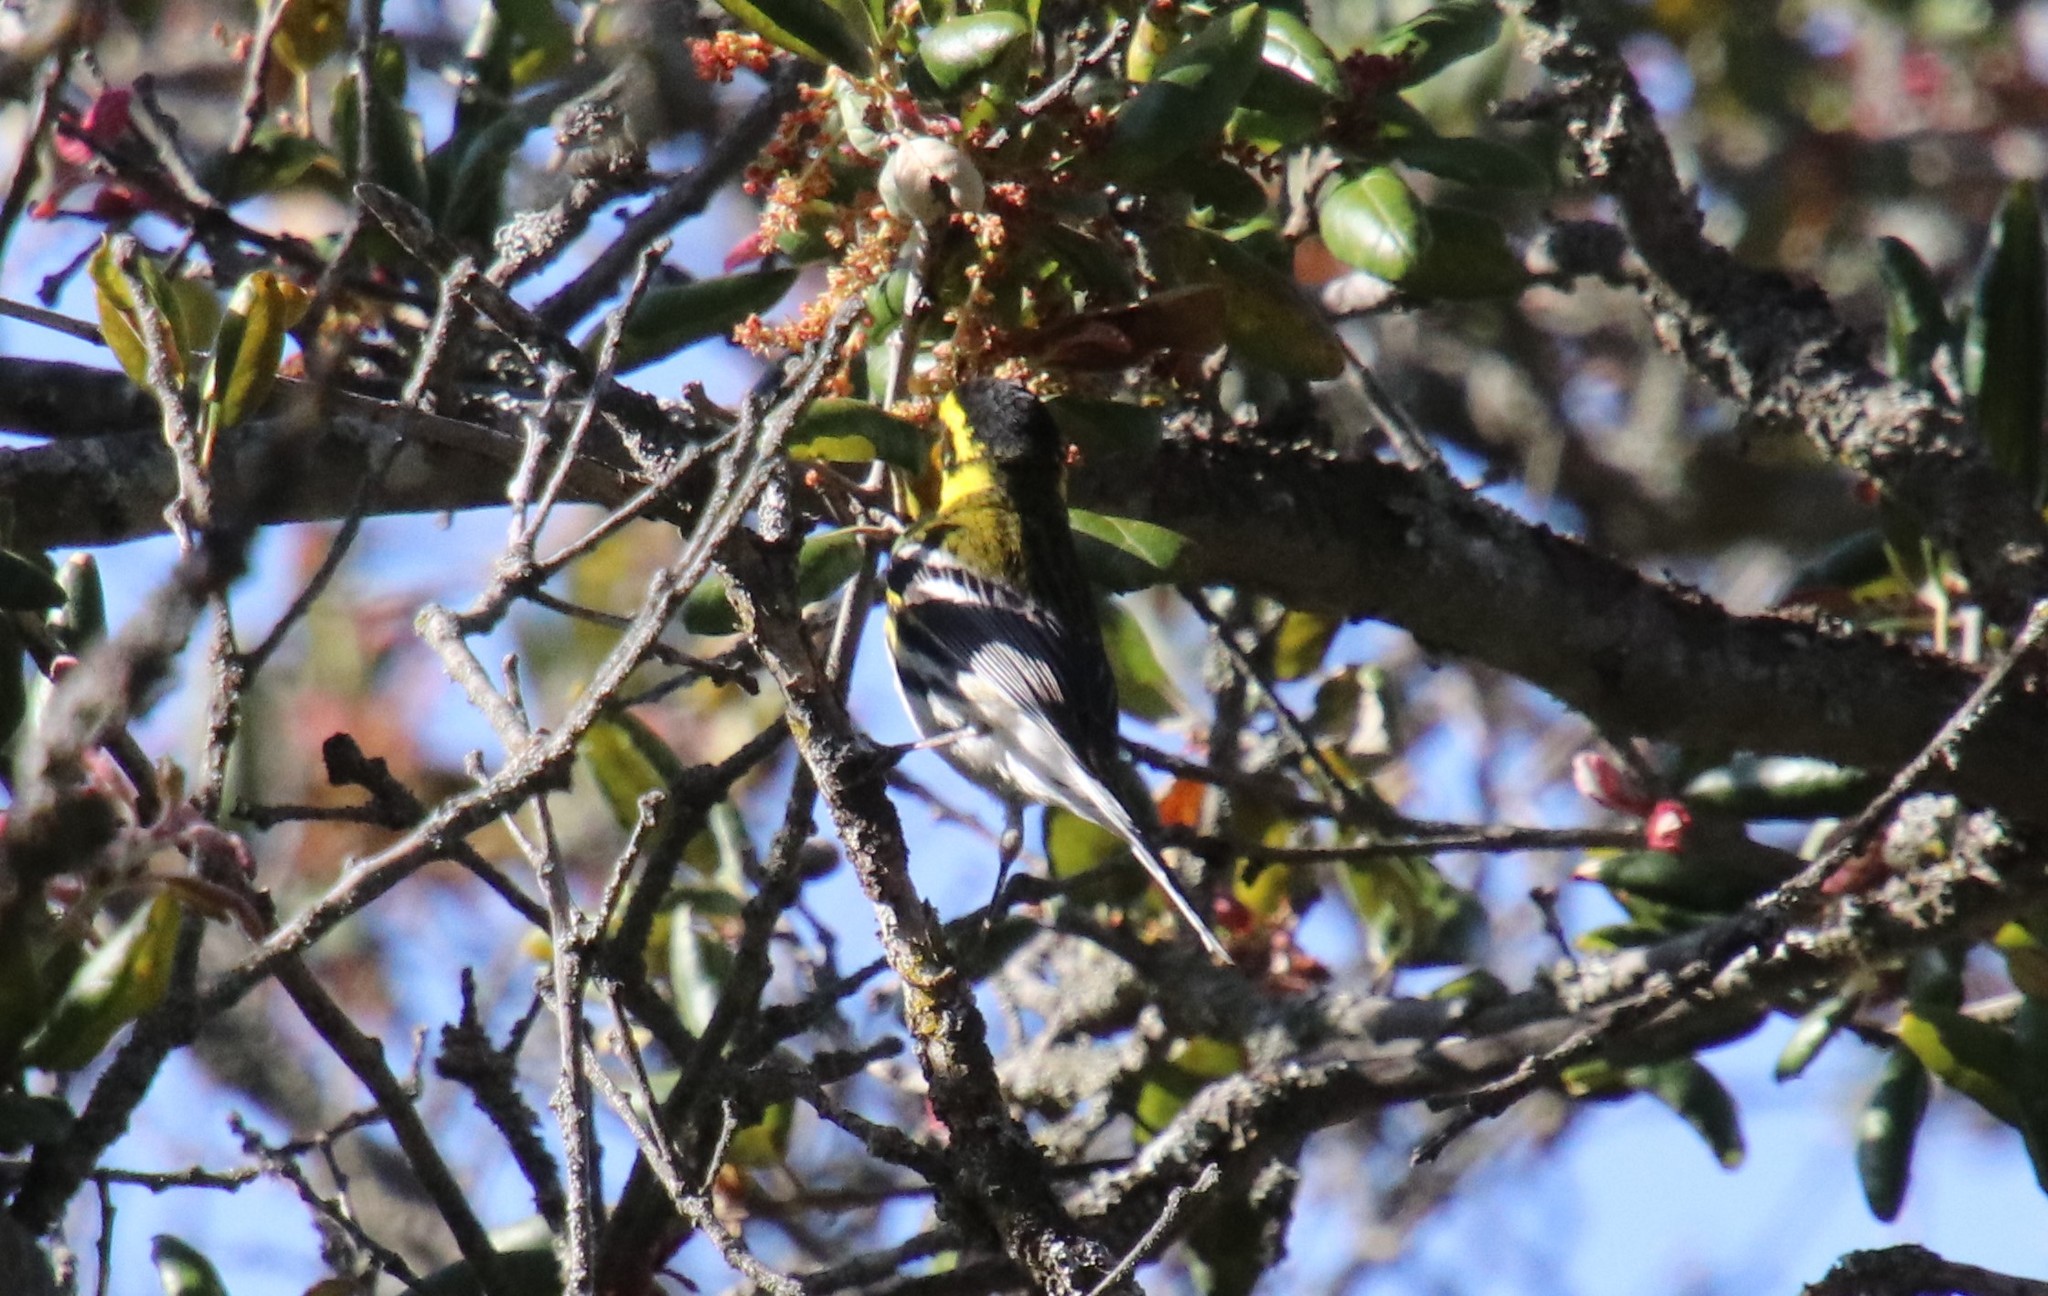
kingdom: Animalia
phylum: Chordata
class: Aves
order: Passeriformes
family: Parulidae
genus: Setophaga
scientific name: Setophaga townsendi
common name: Townsend's warbler
